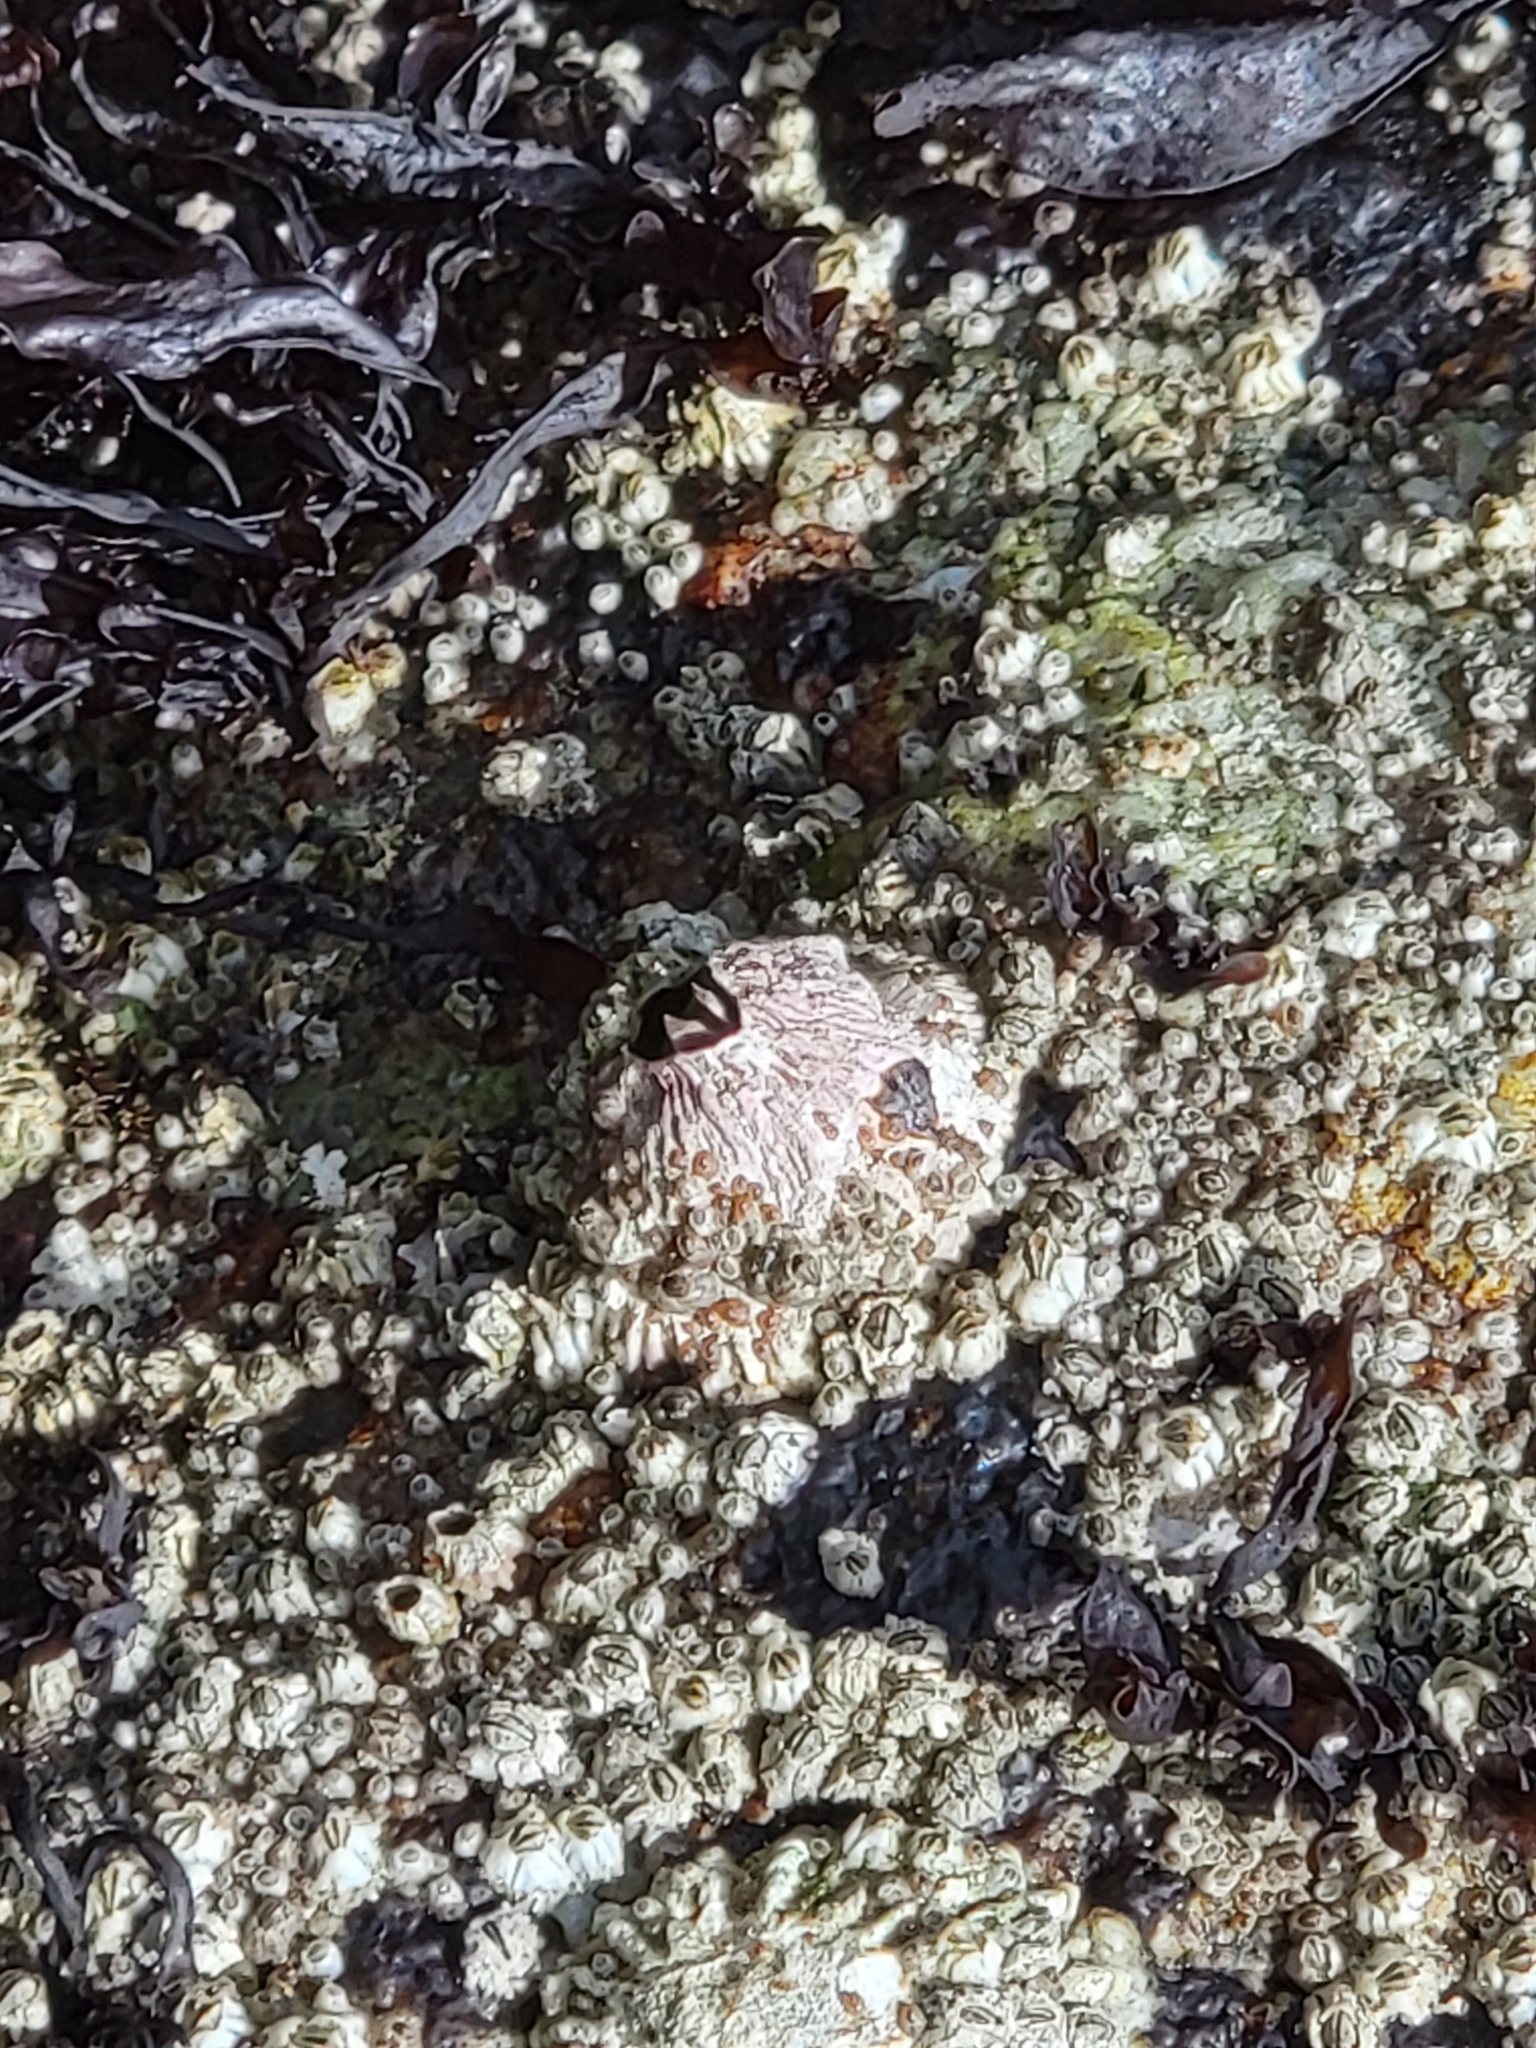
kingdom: Animalia
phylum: Arthropoda
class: Maxillopoda
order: Sessilia
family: Tetraclitidae
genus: Tetraclita
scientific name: Tetraclita rubescens
